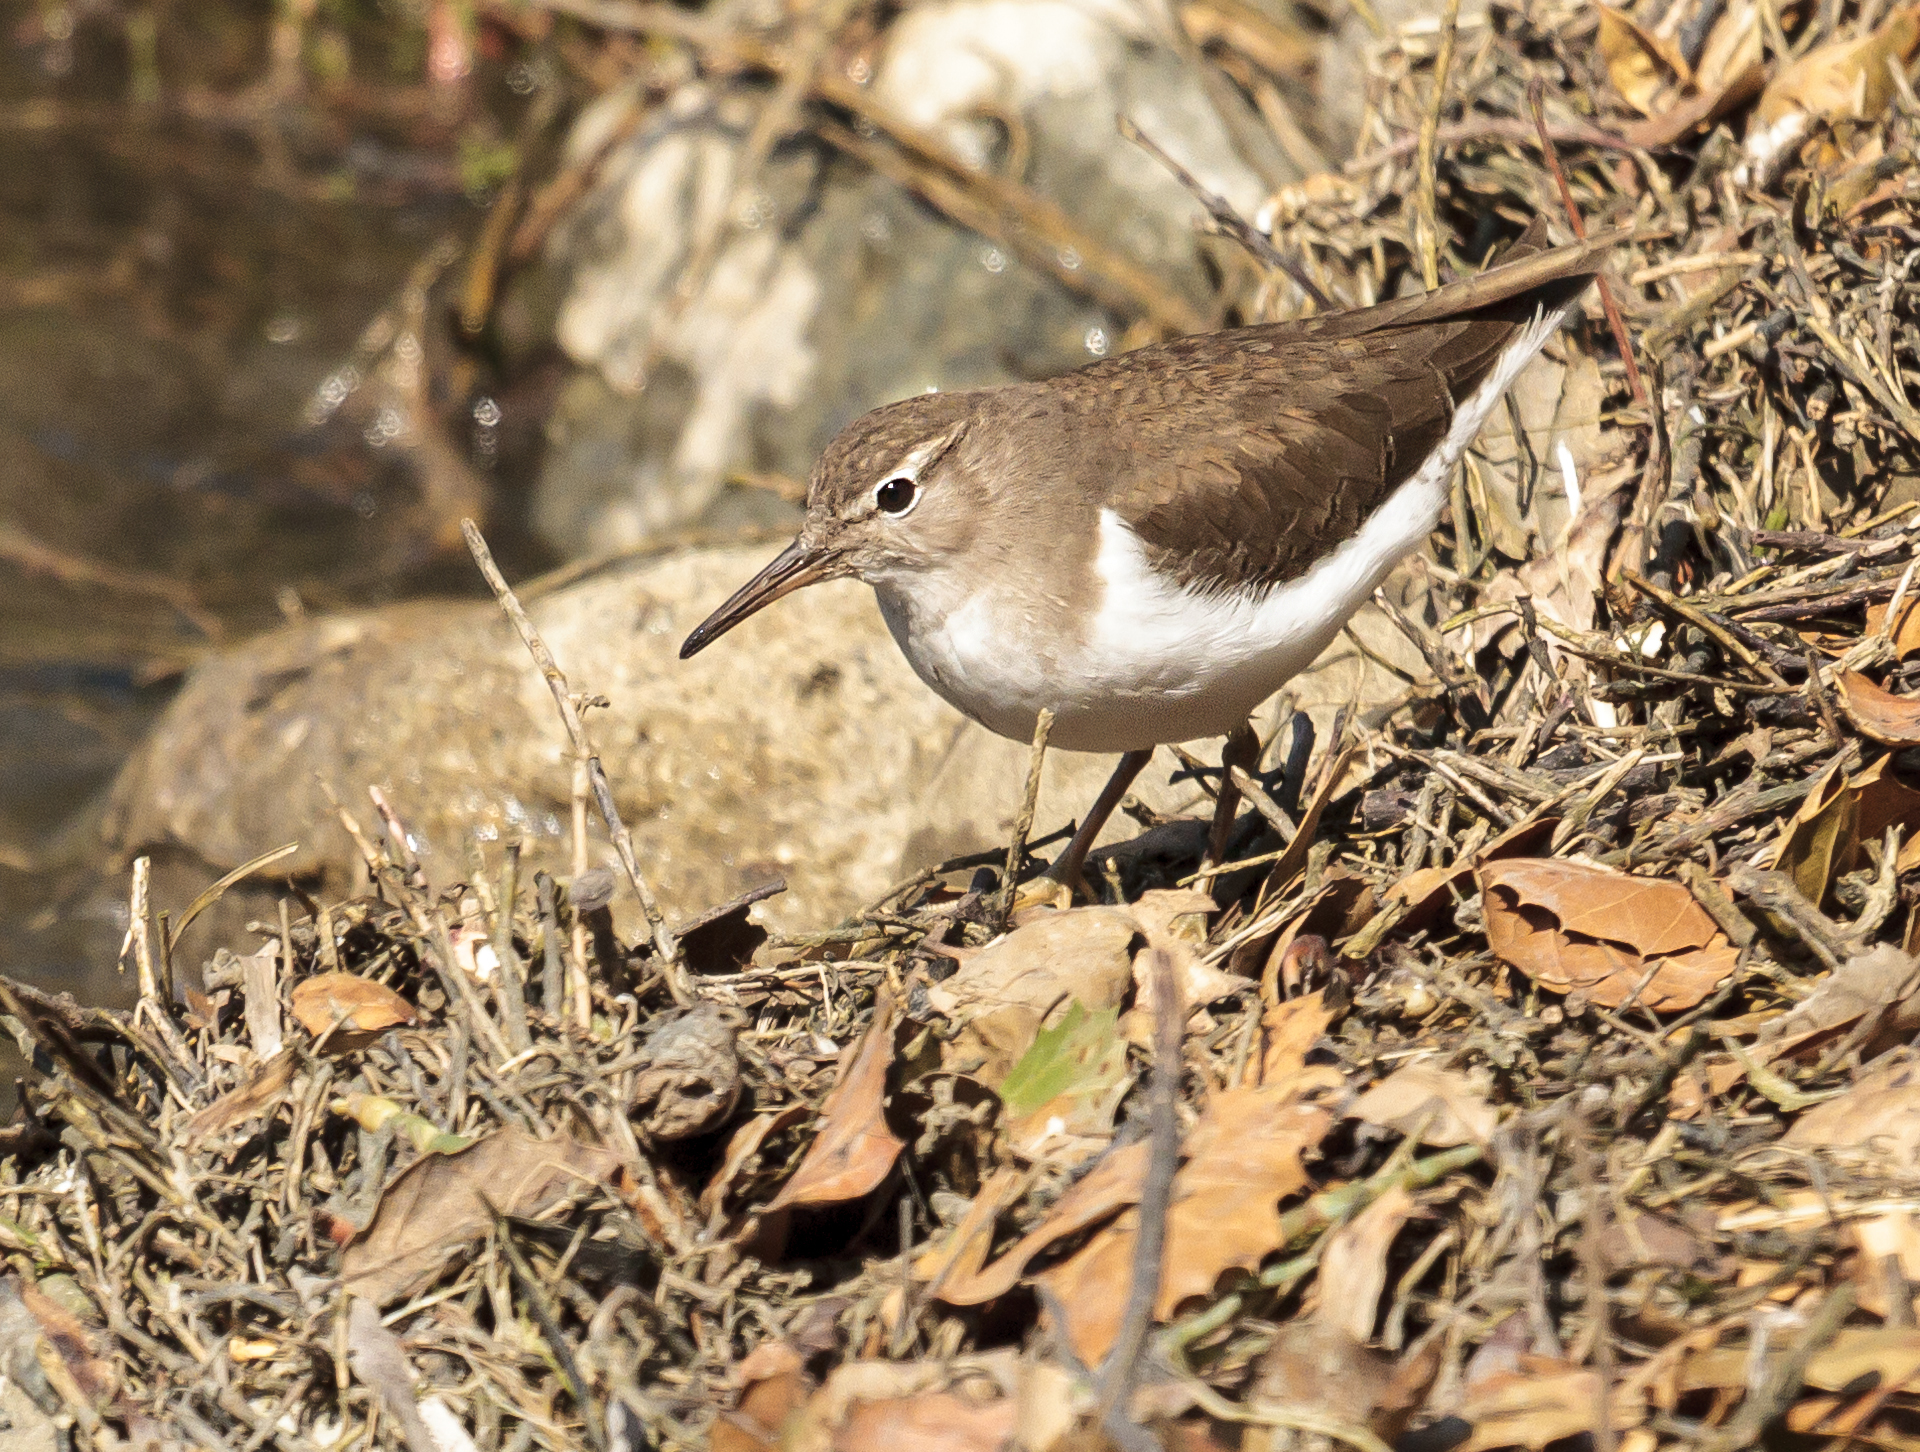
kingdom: Animalia
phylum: Chordata
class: Aves
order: Charadriiformes
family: Scolopacidae
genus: Actitis
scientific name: Actitis macularius
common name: Spotted sandpiper
